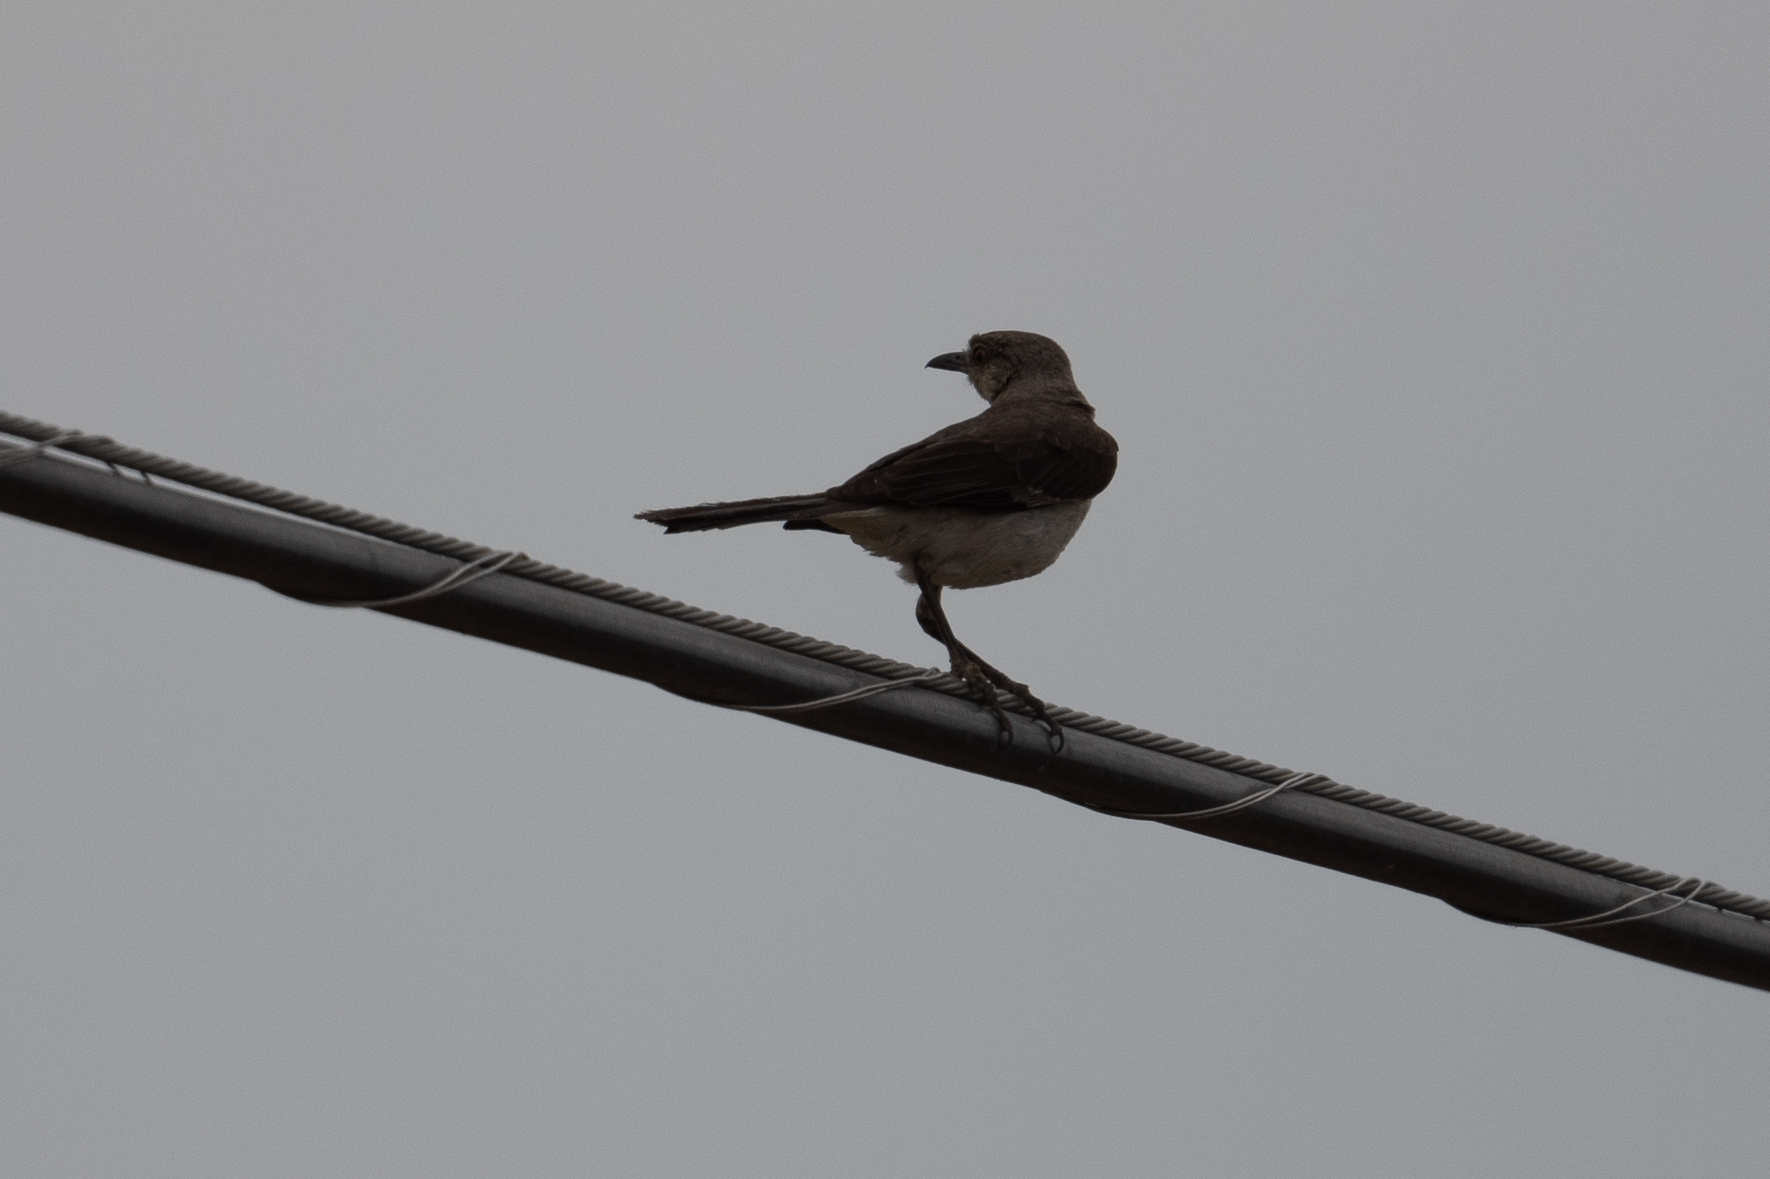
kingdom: Animalia
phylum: Chordata
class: Aves
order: Passeriformes
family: Mimidae
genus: Mimus
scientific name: Mimus polyglottos
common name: Northern mockingbird
